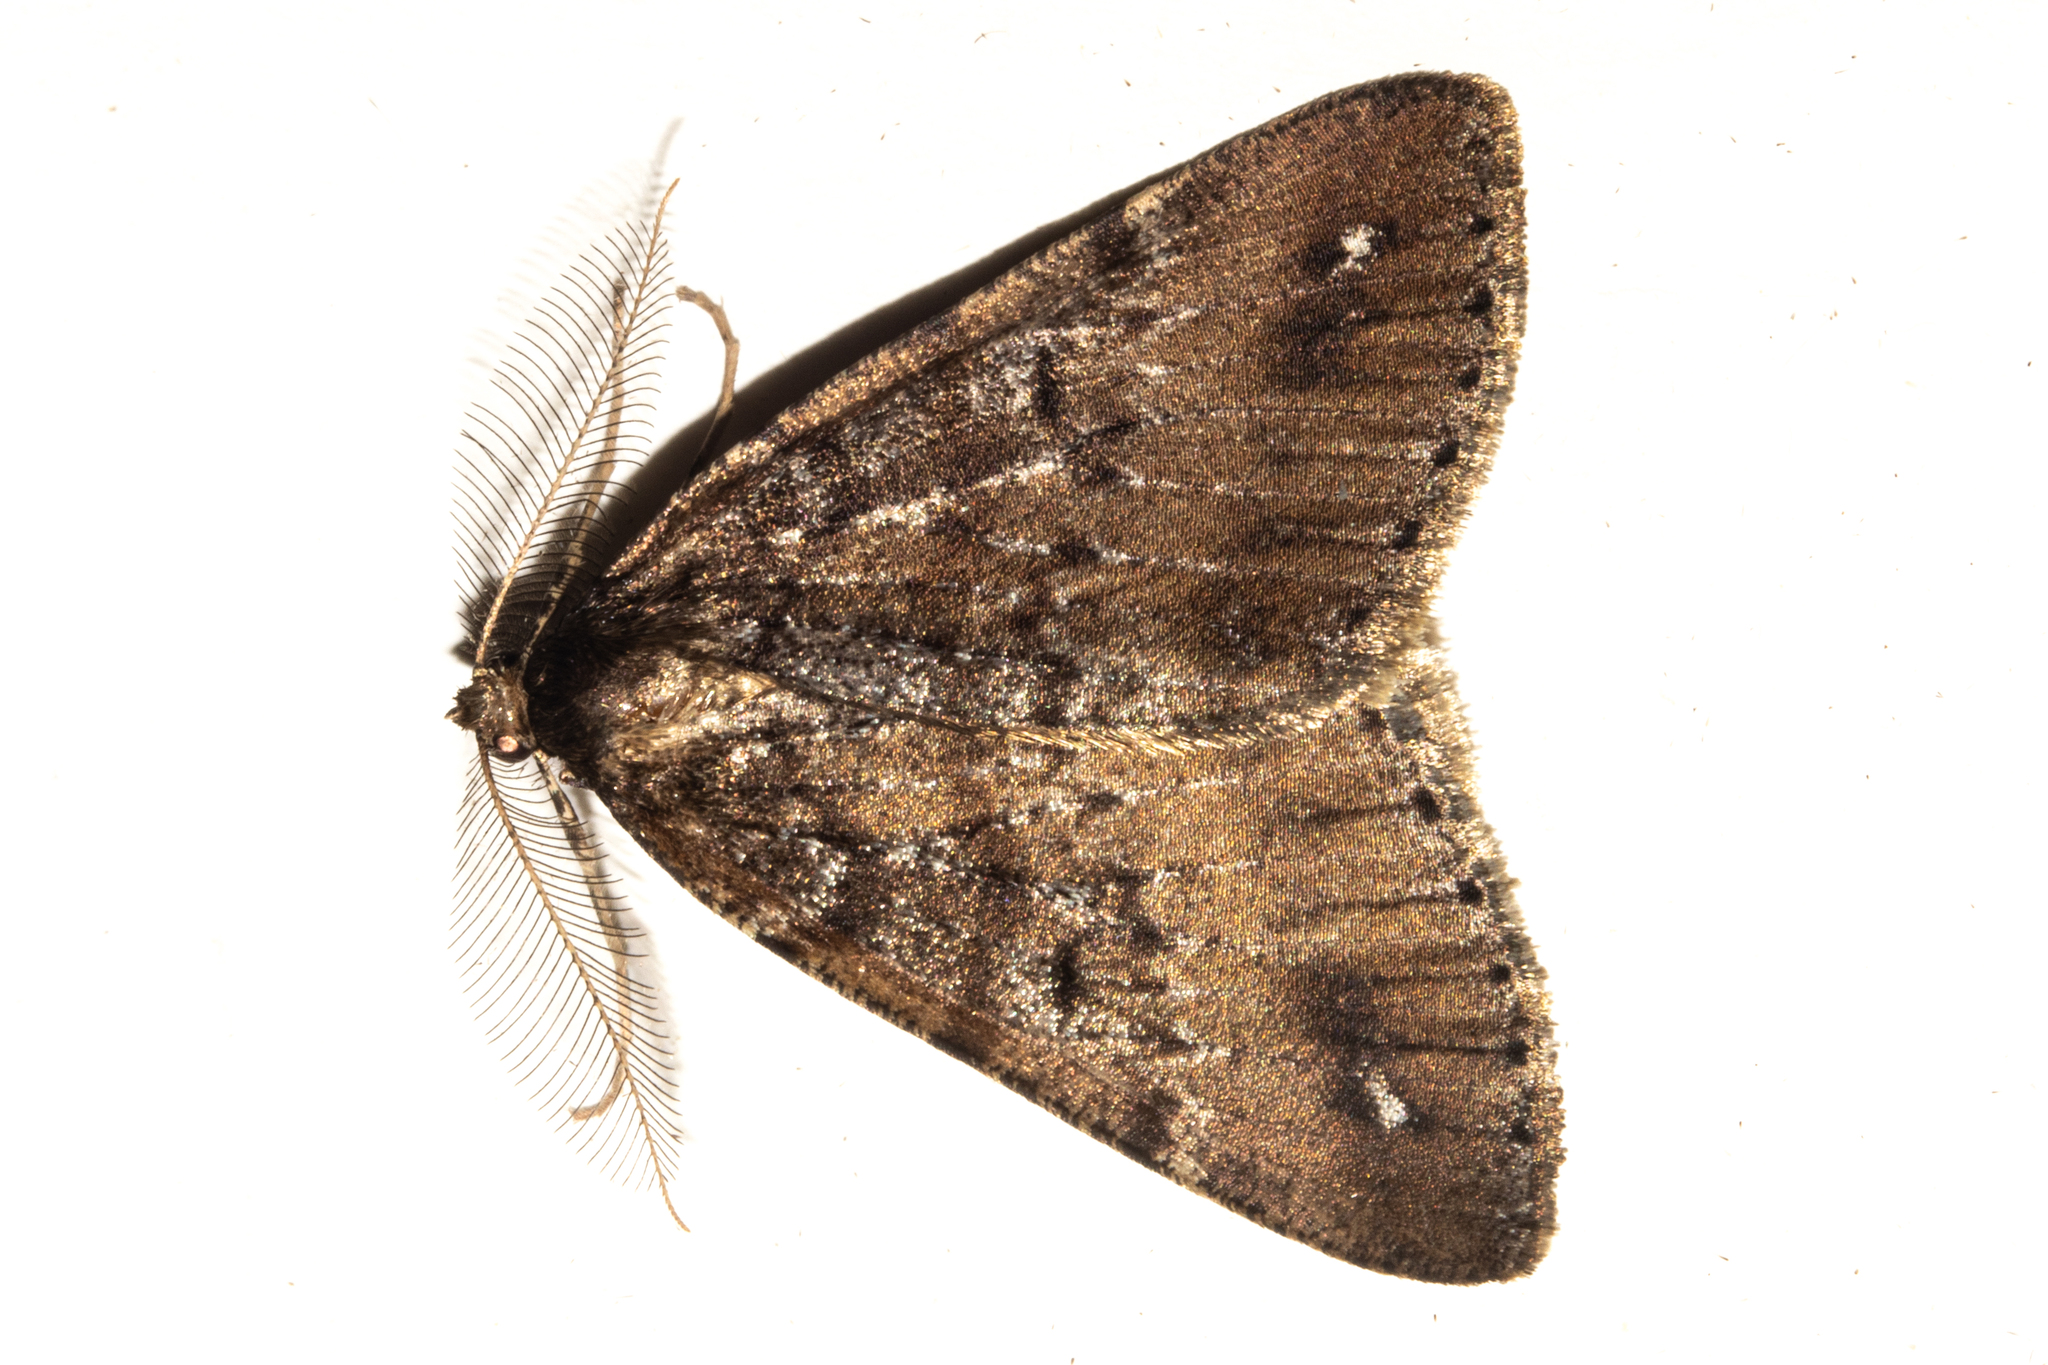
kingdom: Animalia
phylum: Arthropoda
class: Insecta
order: Lepidoptera
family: Geometridae
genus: Pseudocoremia
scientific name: Pseudocoremia berylia
